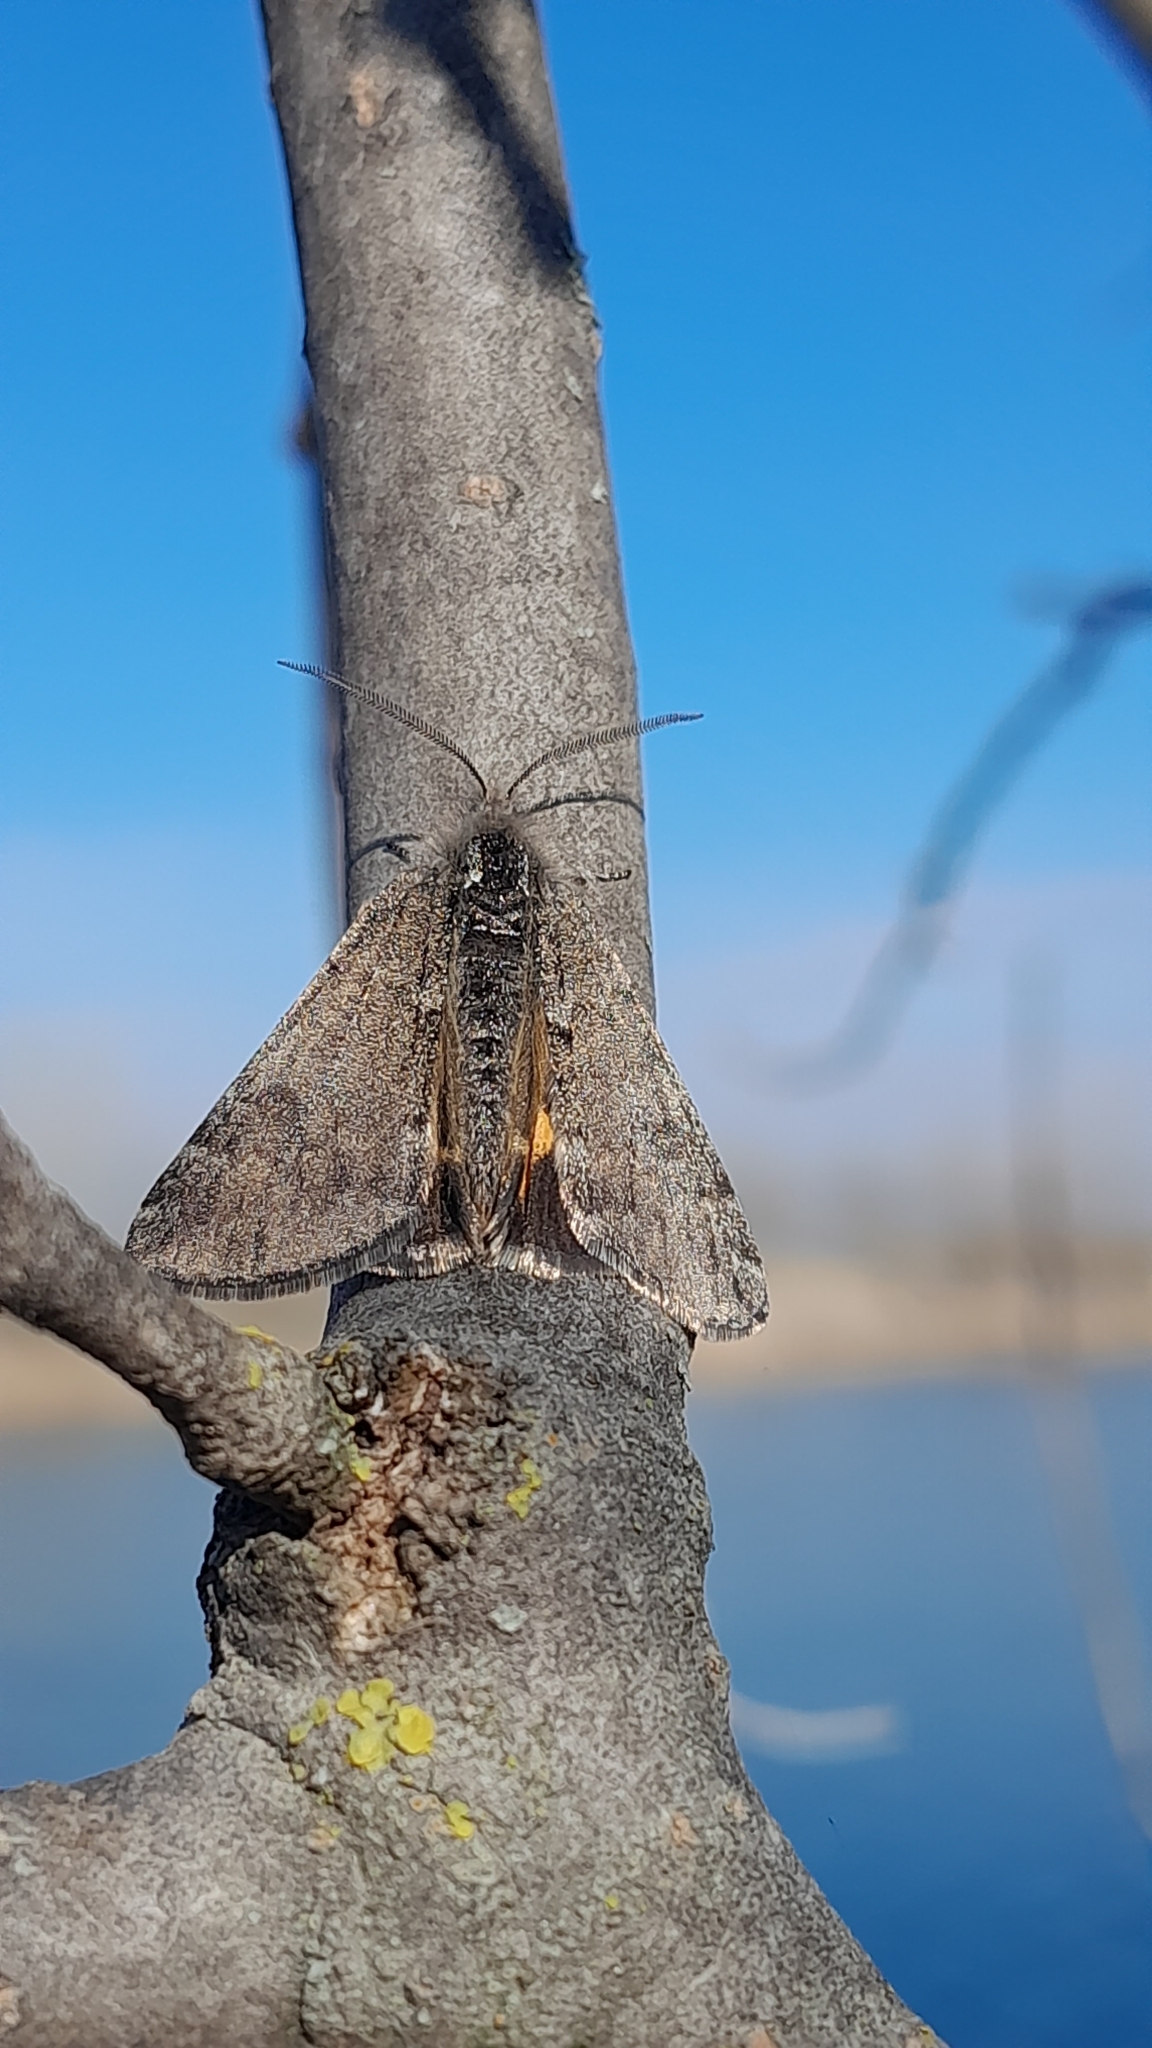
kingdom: Animalia
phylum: Arthropoda
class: Insecta
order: Lepidoptera
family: Geometridae
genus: Boudinotiana
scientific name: Boudinotiana puella
